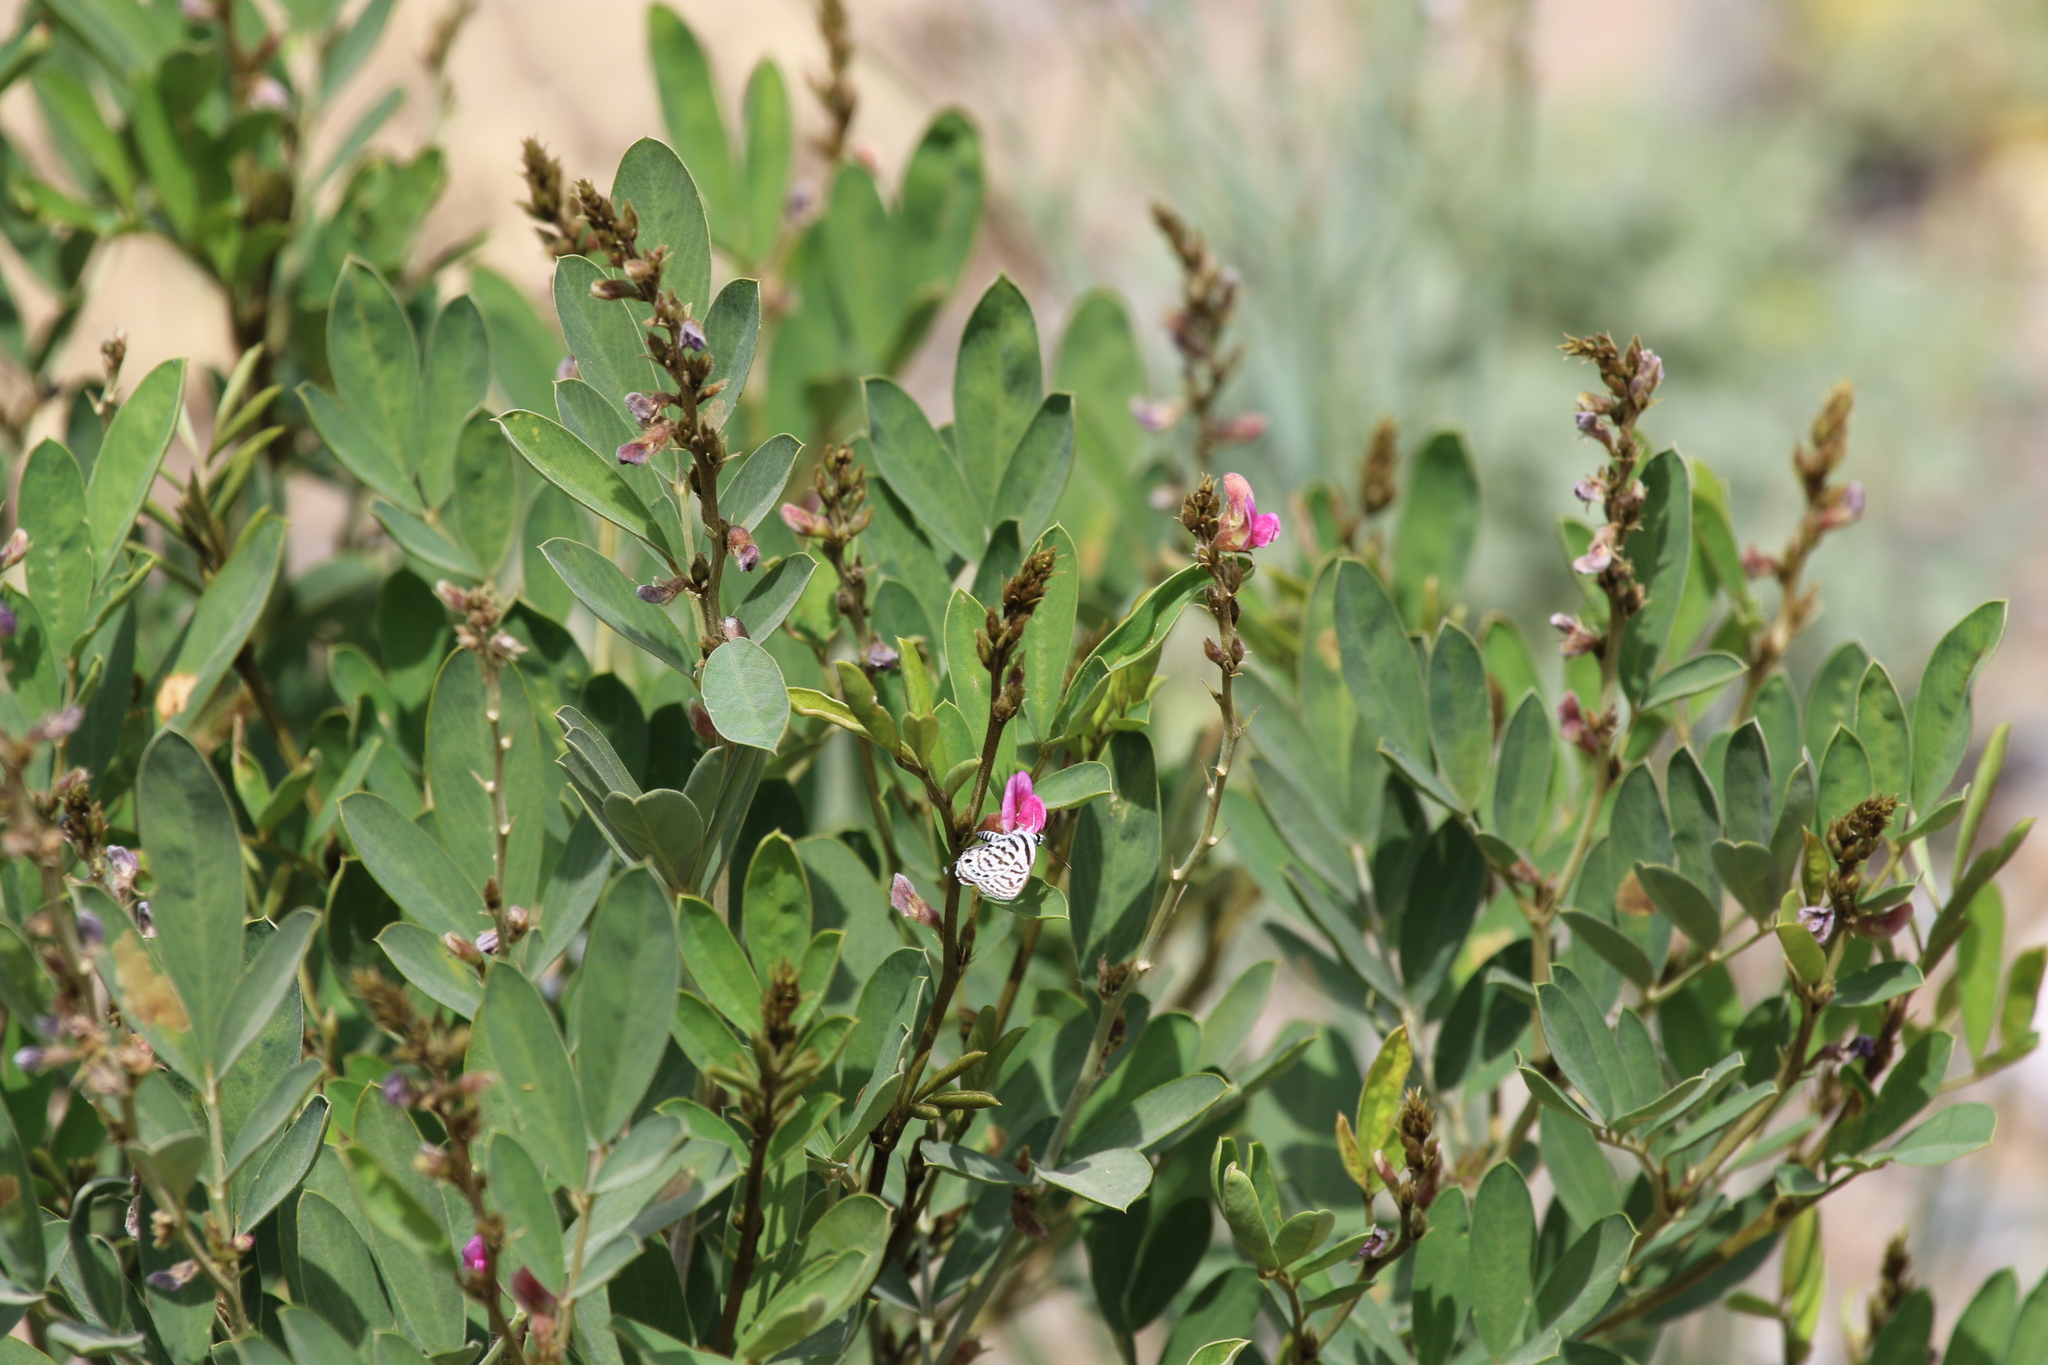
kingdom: Plantae
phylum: Tracheophyta
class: Magnoliopsida
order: Fabales
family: Fabaceae
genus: Tephrosia
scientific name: Tephrosia
